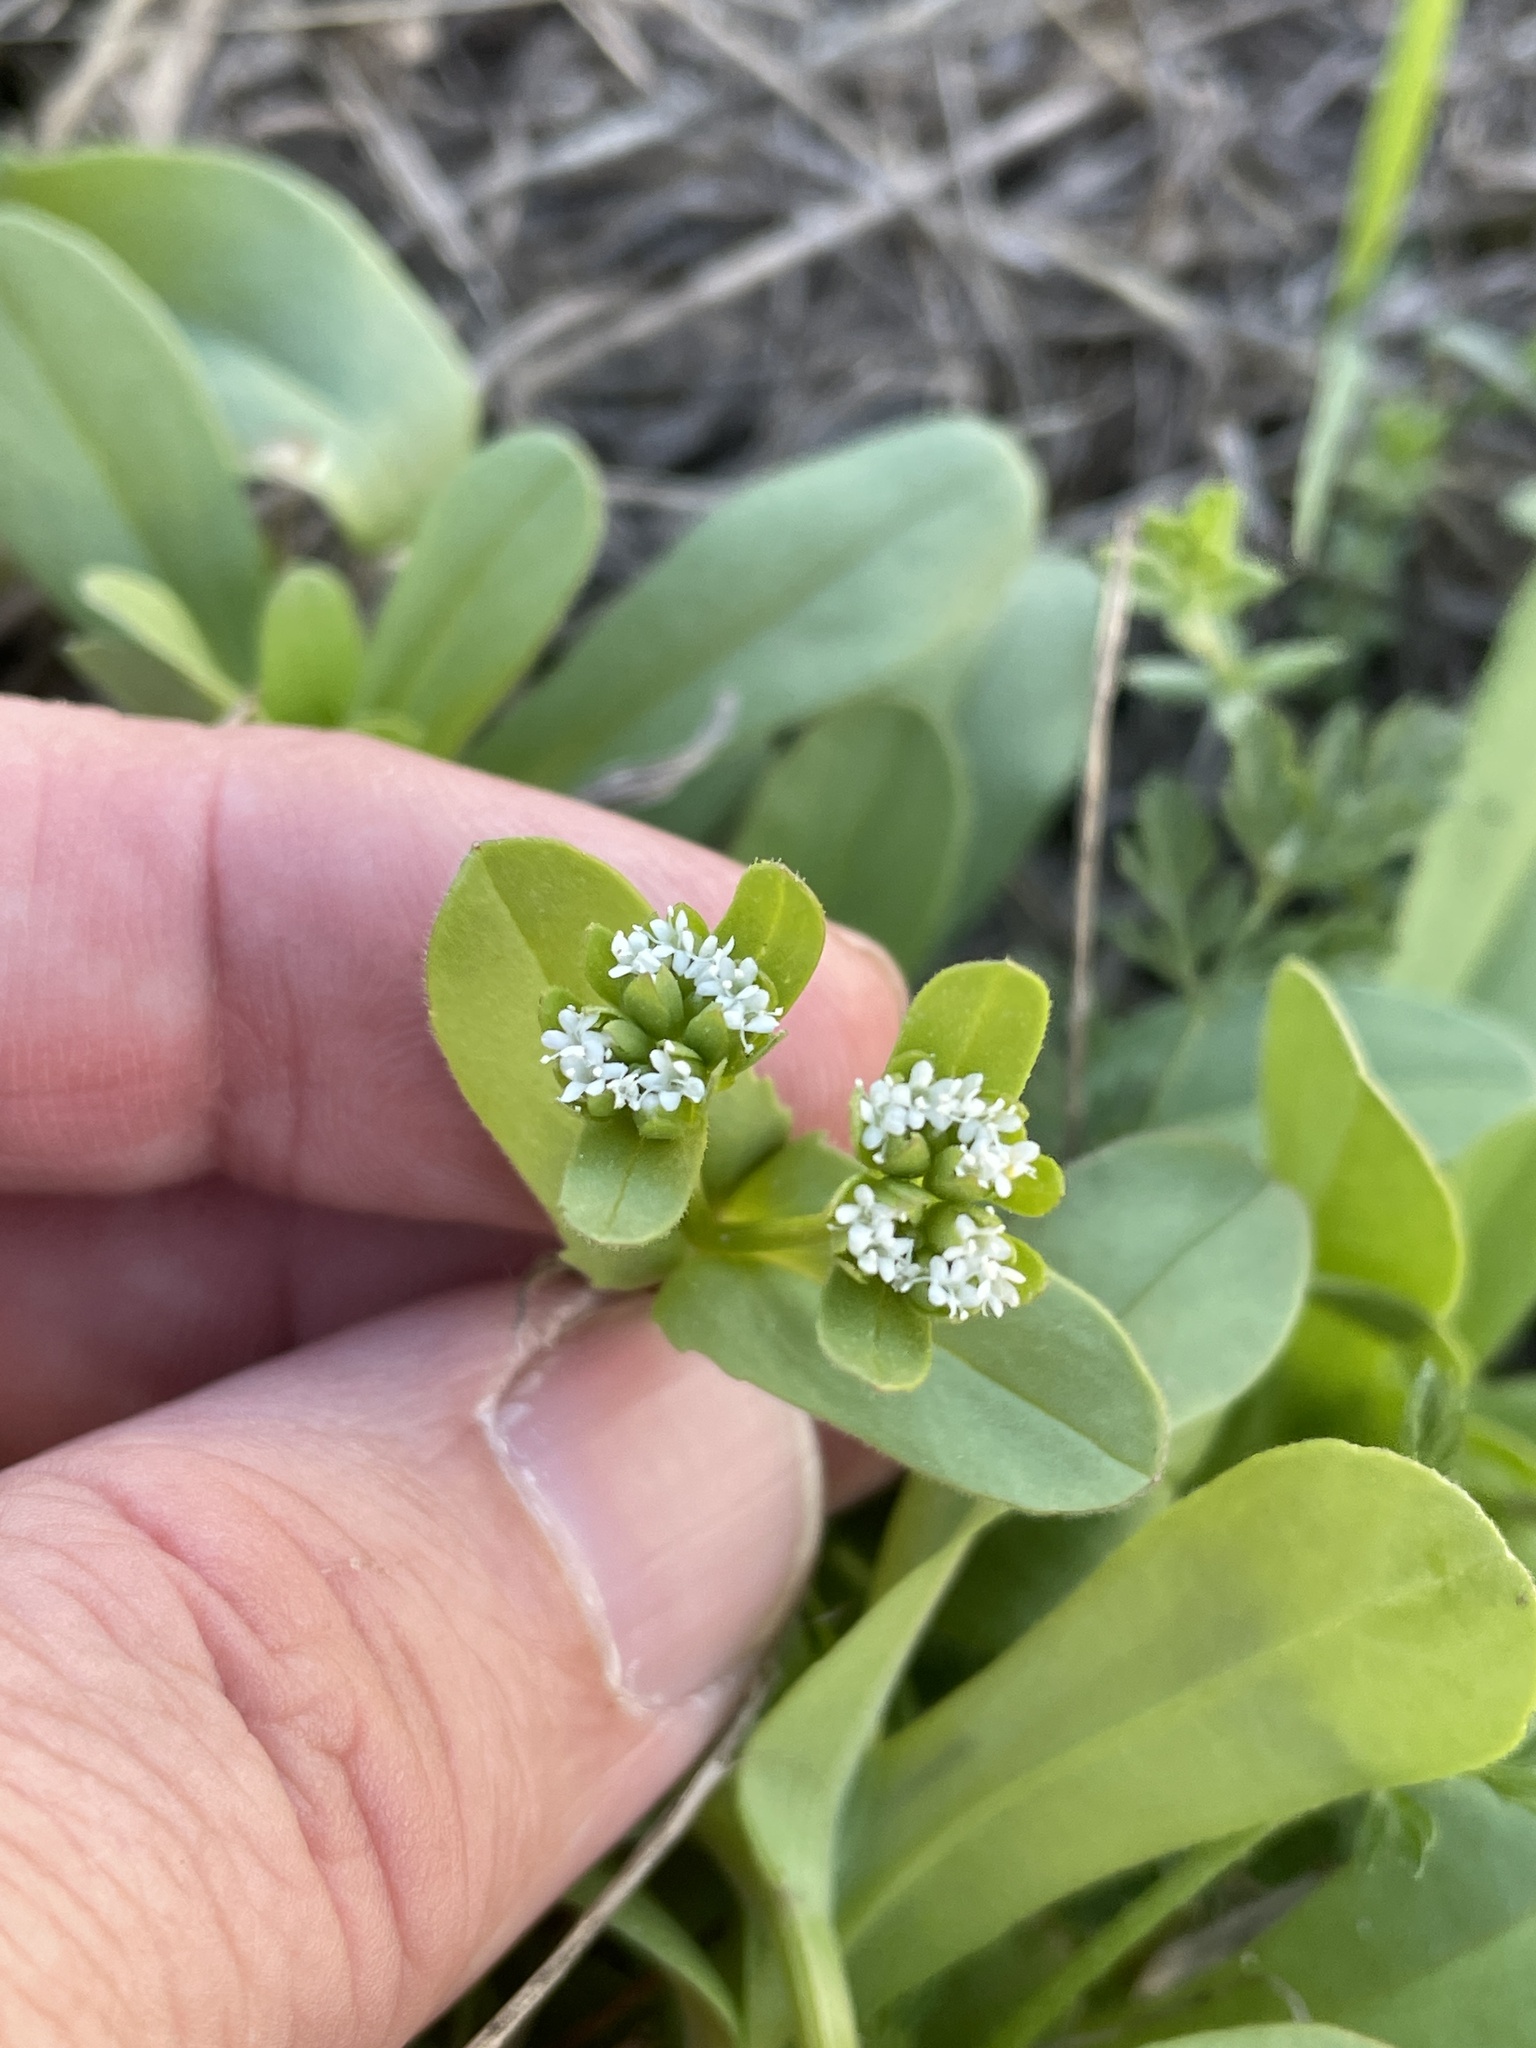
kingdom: Plantae
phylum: Tracheophyta
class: Magnoliopsida
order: Dipsacales
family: Caprifoliaceae
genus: Valerianella
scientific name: Valerianella radiata
